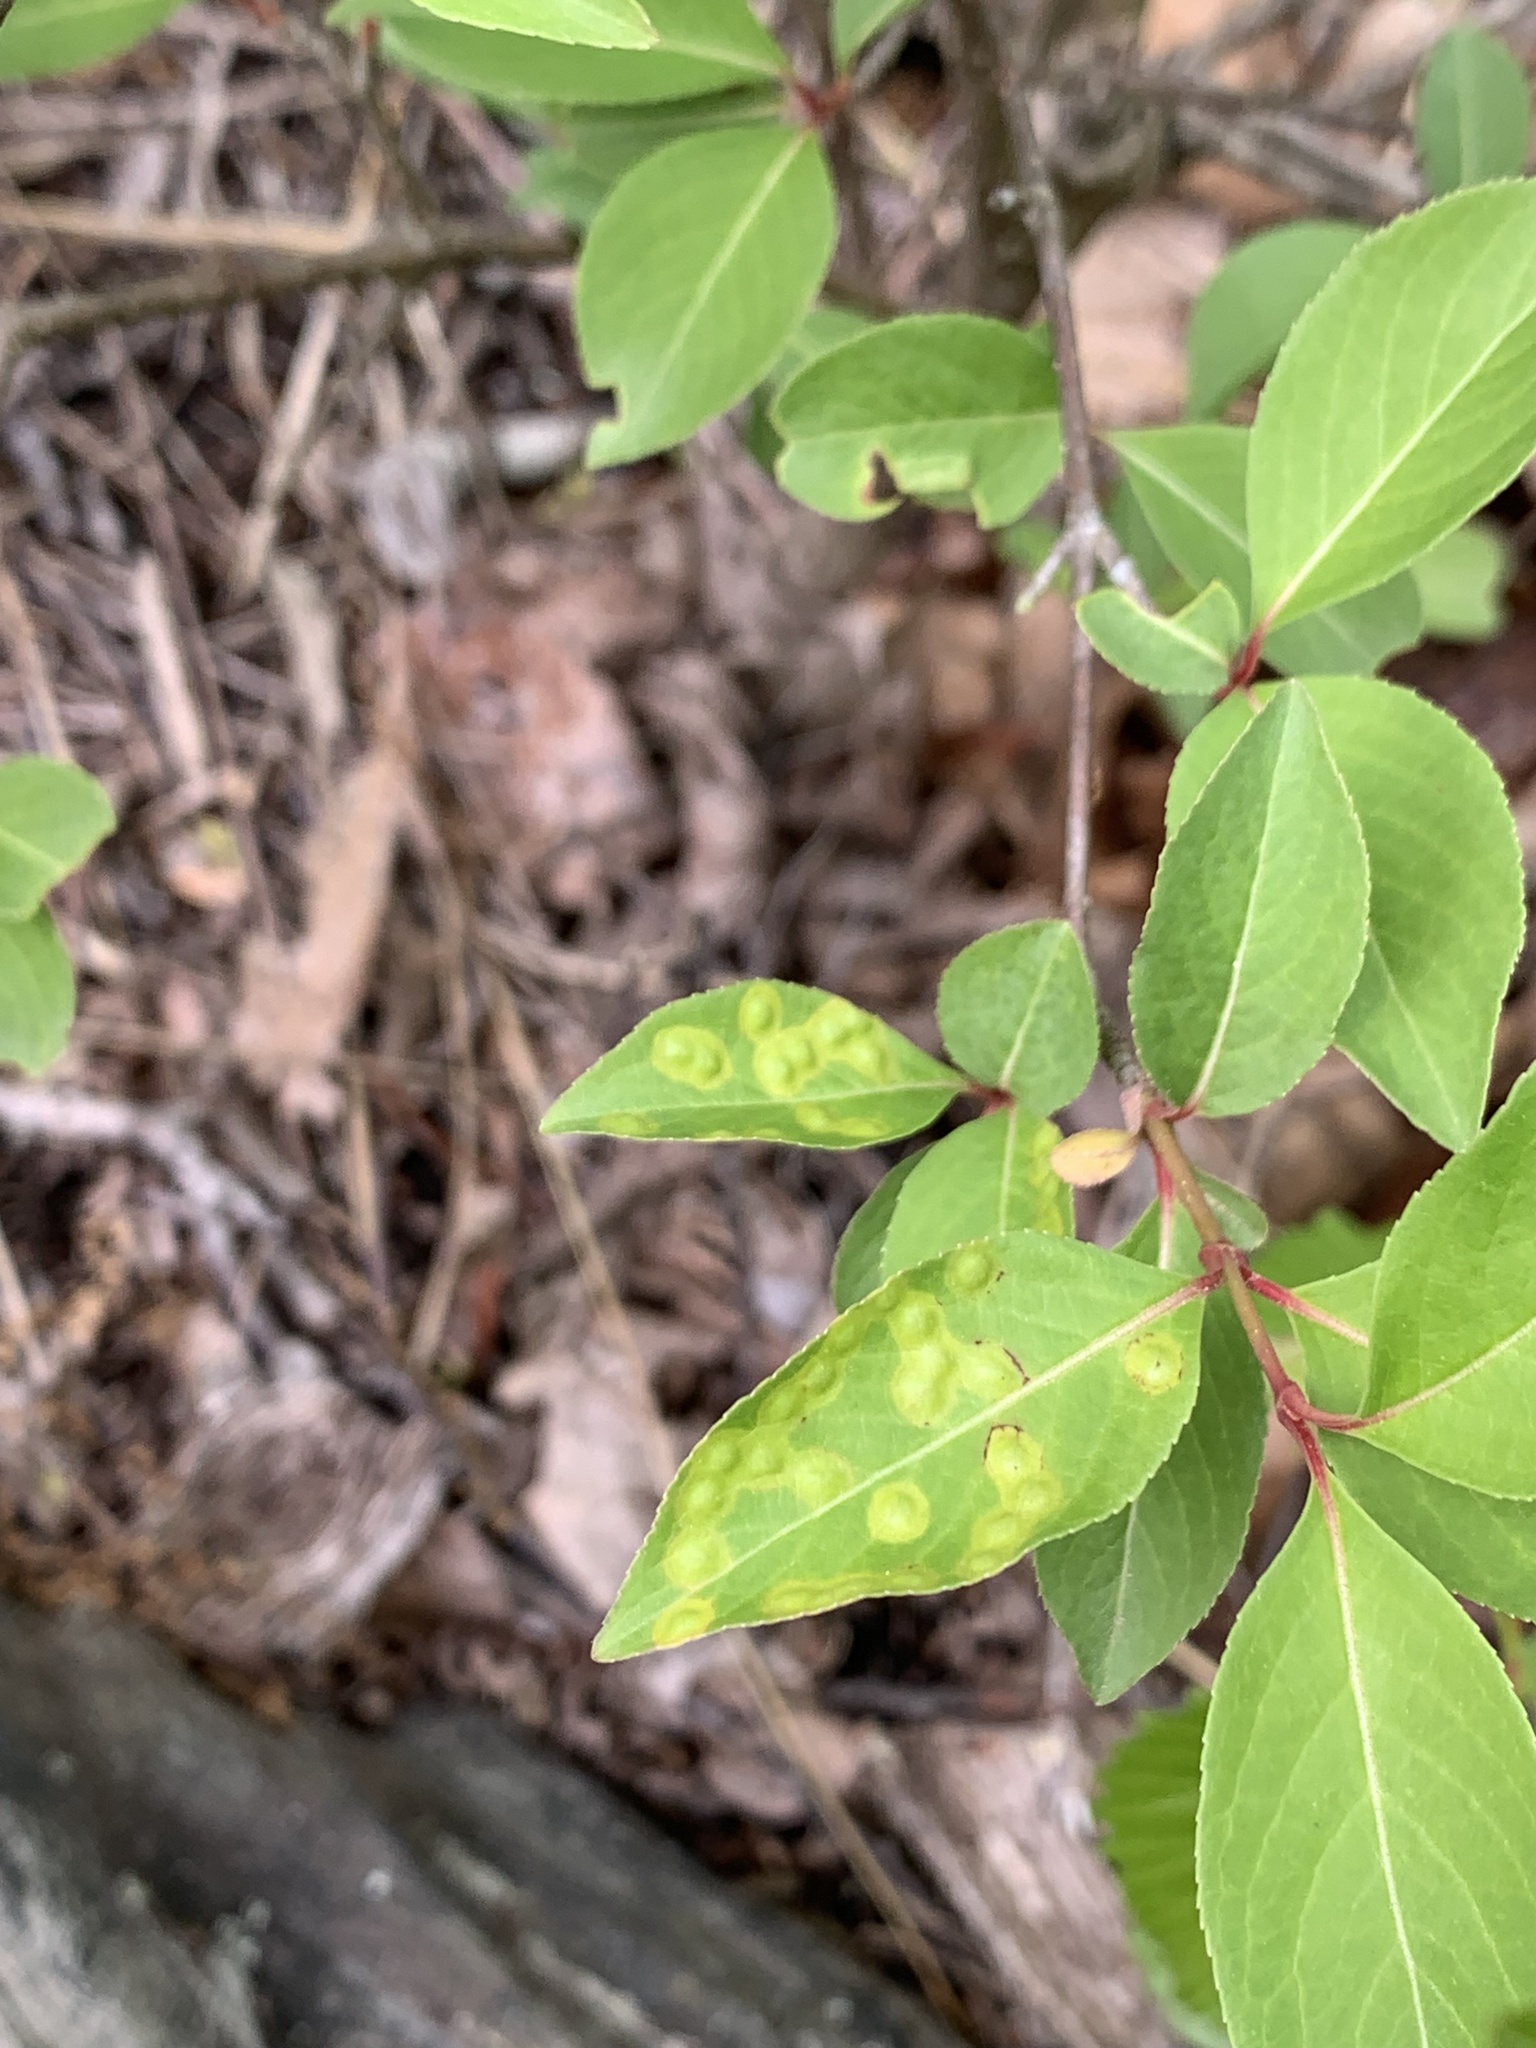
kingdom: Animalia
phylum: Arthropoda
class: Insecta
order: Diptera
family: Cecidomyiidae
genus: Sackenomyia
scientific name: Sackenomyia commota
